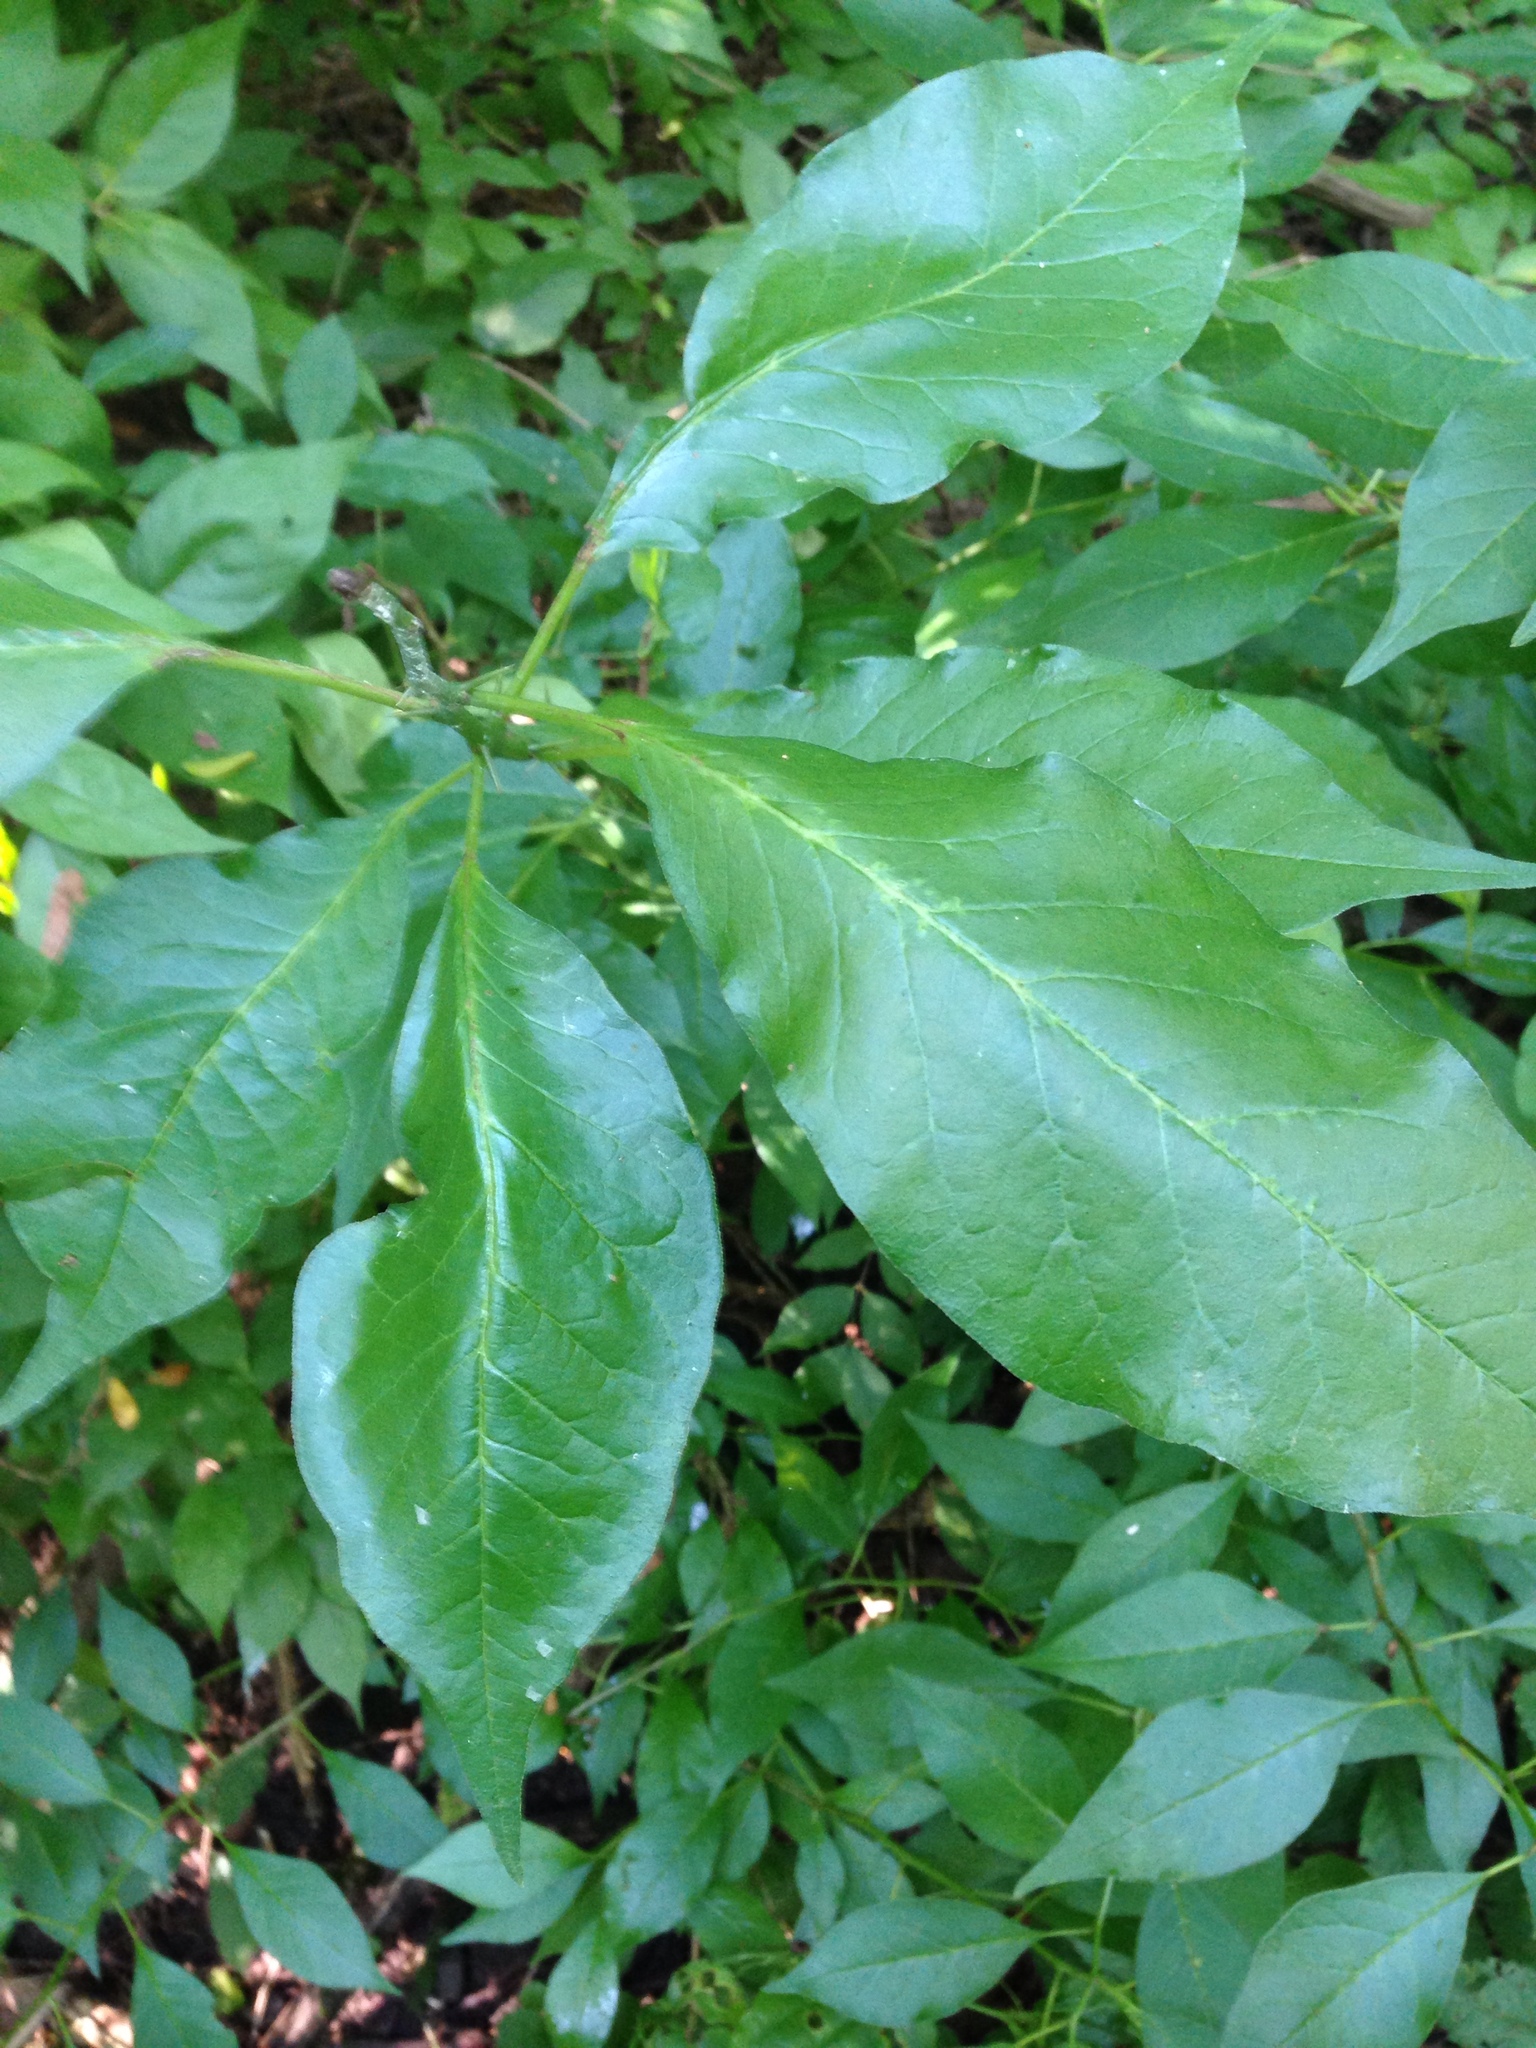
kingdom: Plantae
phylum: Tracheophyta
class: Magnoliopsida
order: Rosales
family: Moraceae
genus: Maclura
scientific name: Maclura pomifera
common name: Osage-orange
